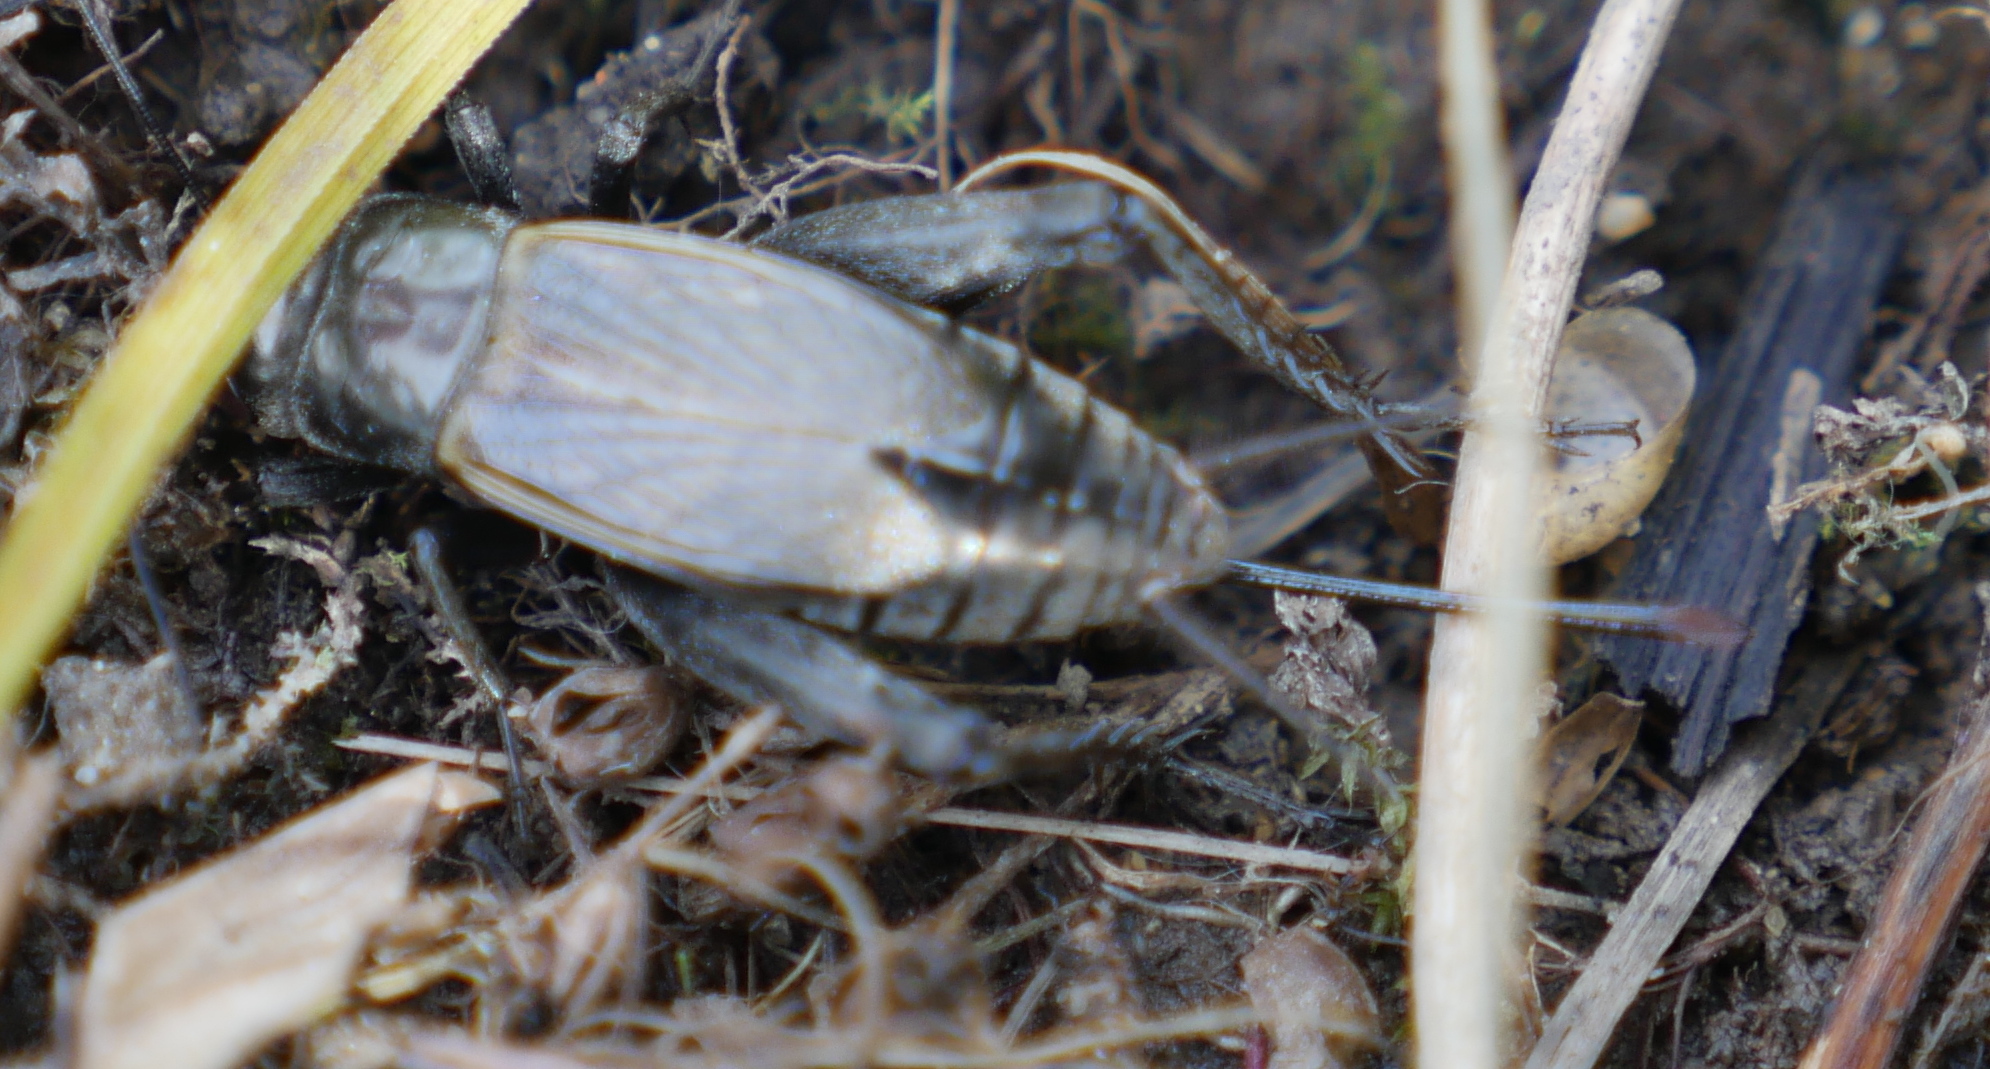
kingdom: Animalia
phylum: Arthropoda
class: Insecta
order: Orthoptera
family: Gryllidae
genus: Gryllus
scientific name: Gryllus veletis
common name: Spring field cricket
